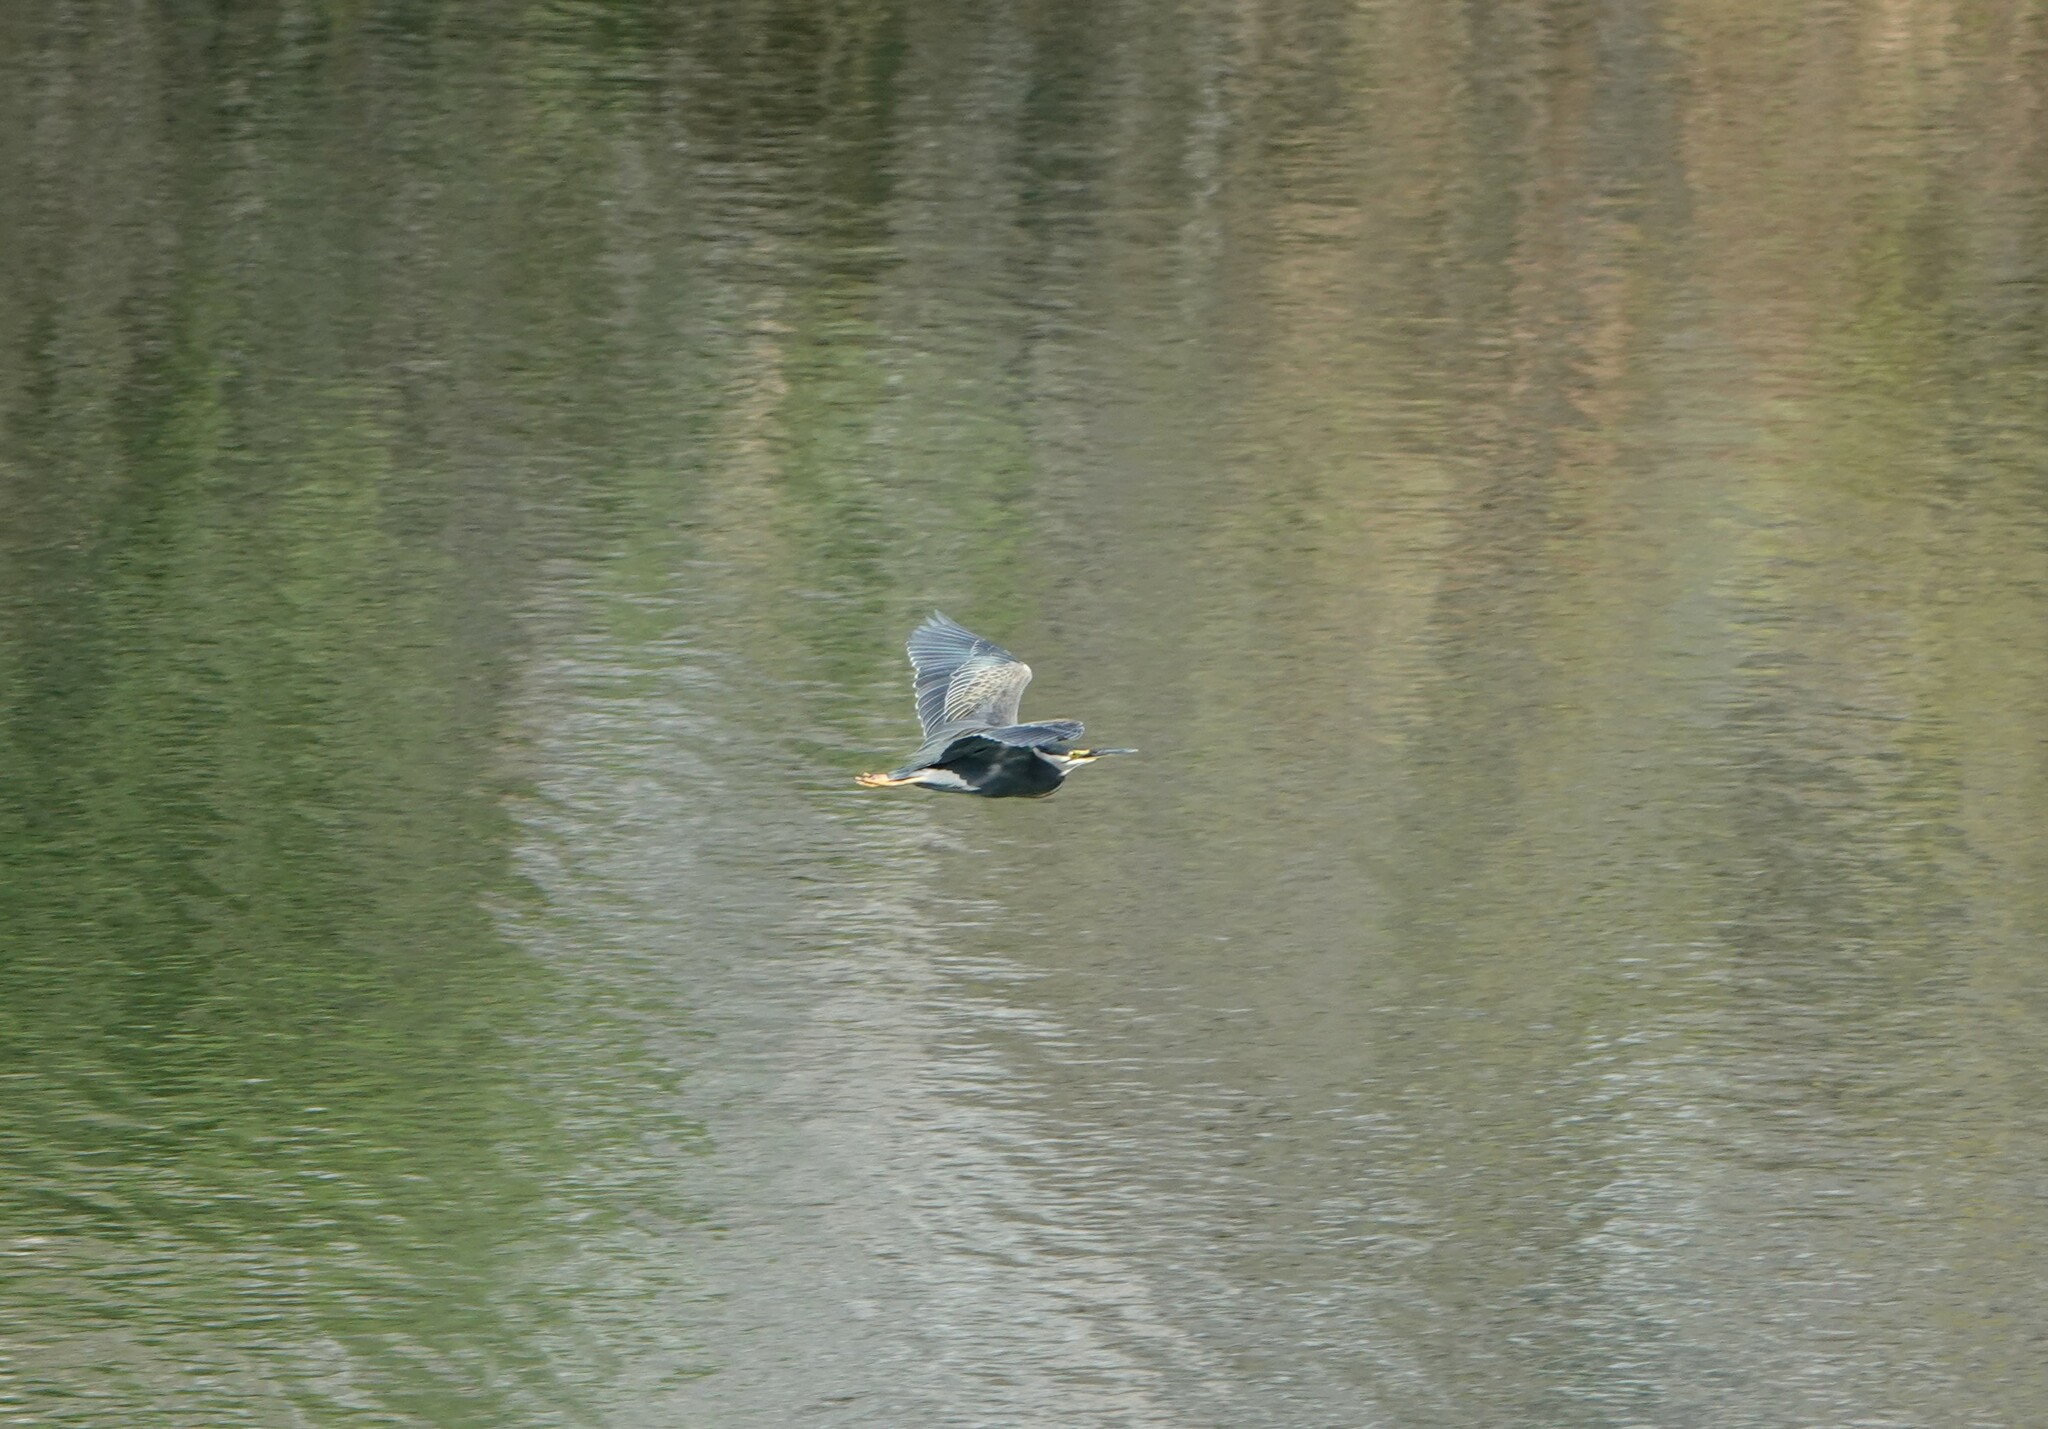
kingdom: Animalia
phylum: Chordata
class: Aves
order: Pelecaniformes
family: Ardeidae
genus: Butorides
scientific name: Butorides striata
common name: Striated heron
